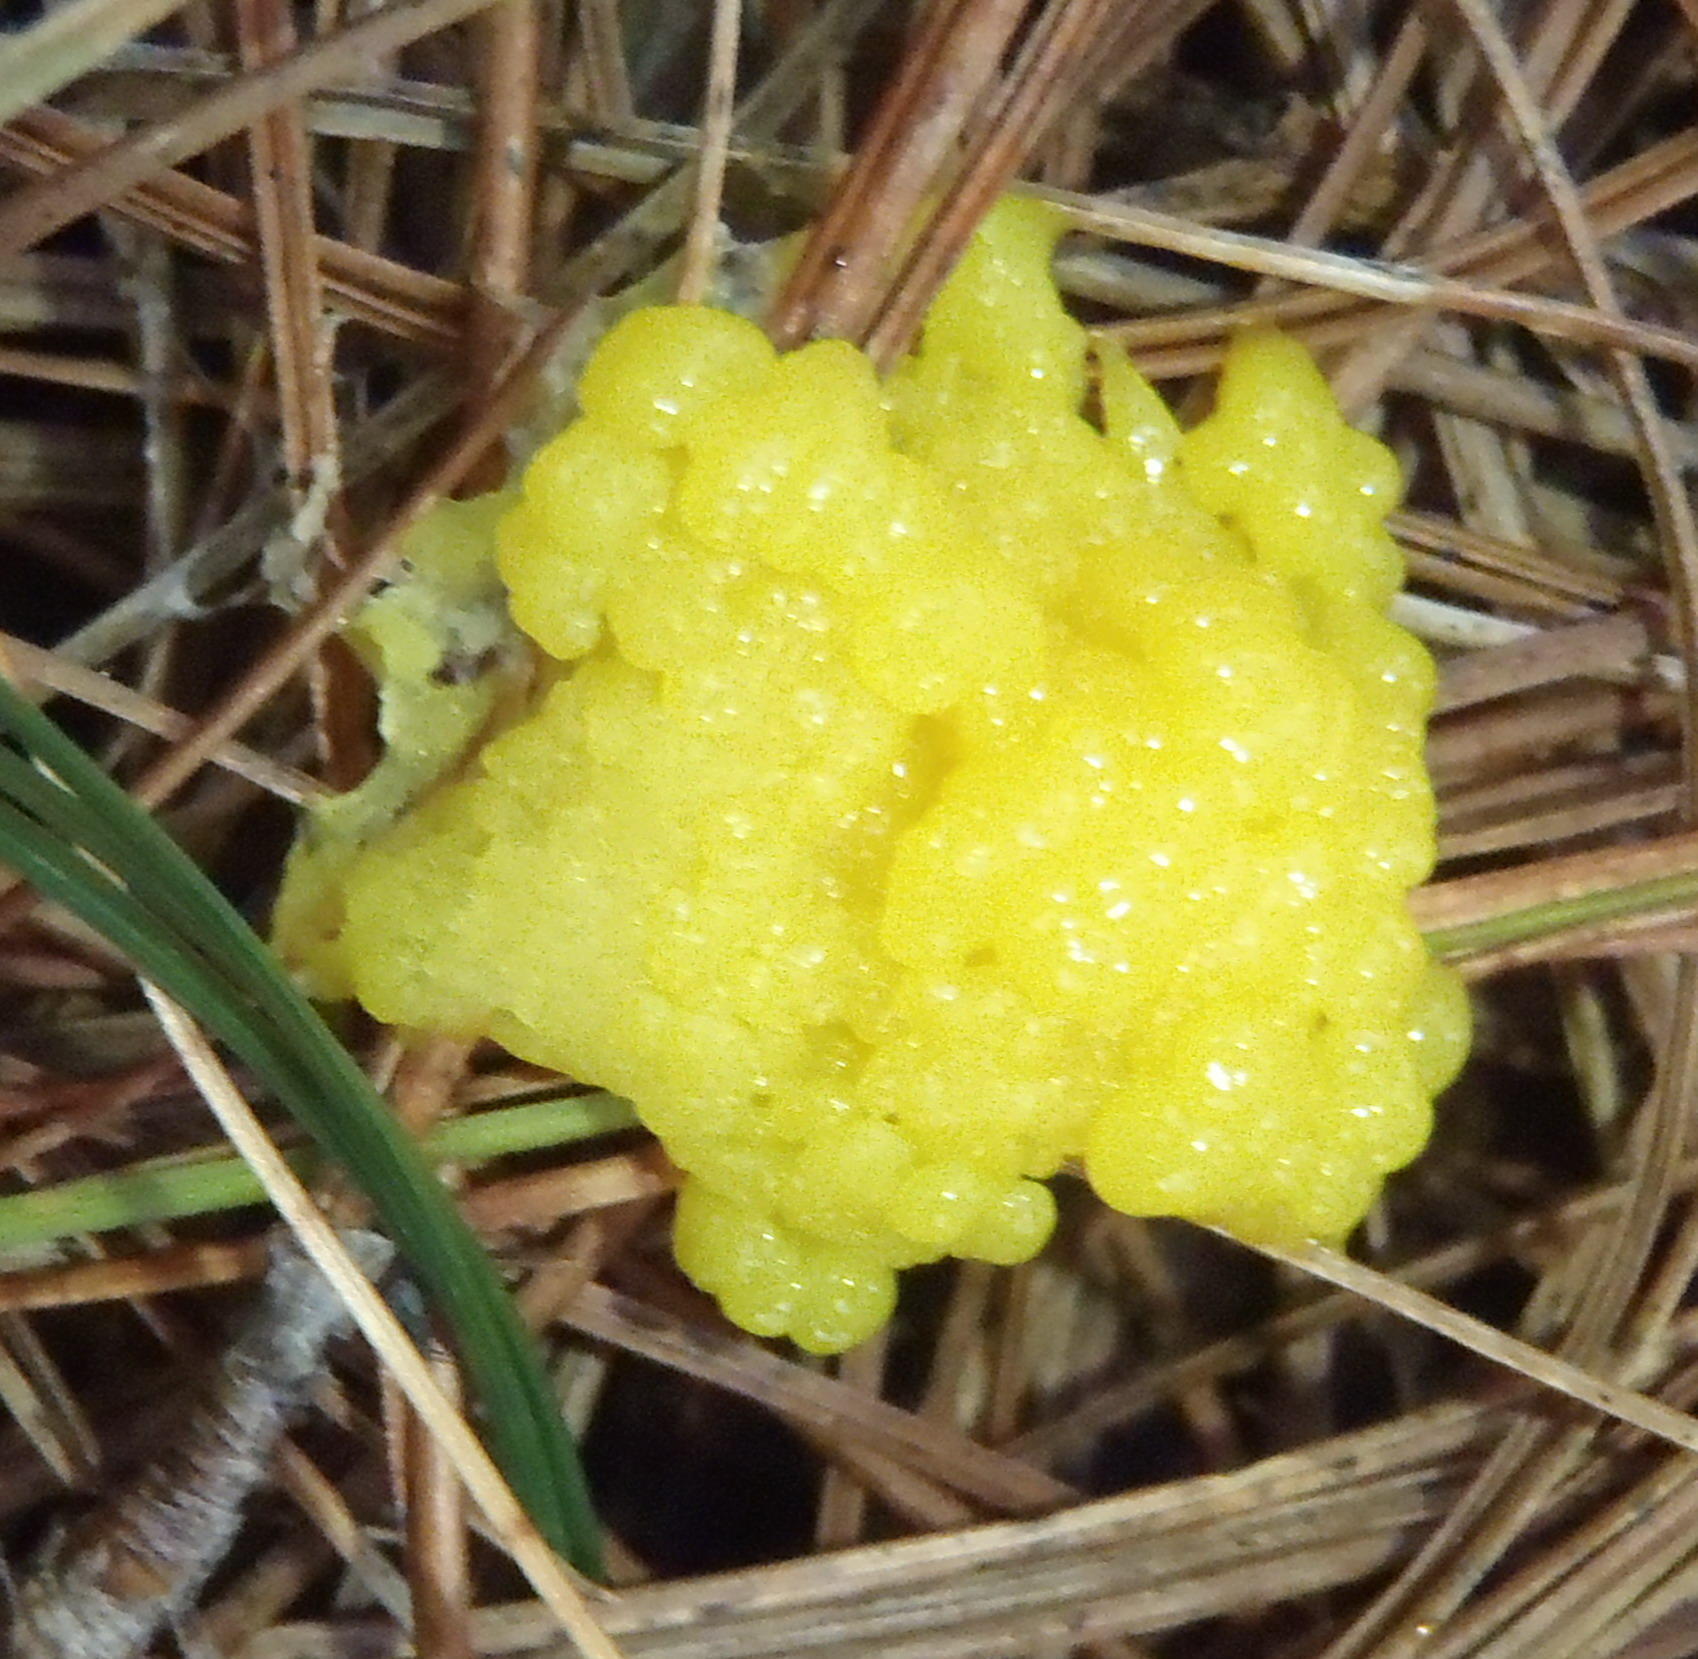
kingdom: Protozoa
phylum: Mycetozoa
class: Myxomycetes
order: Physarales
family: Physaraceae
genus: Fuligo
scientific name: Fuligo septica
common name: Dog vomit slime mold
